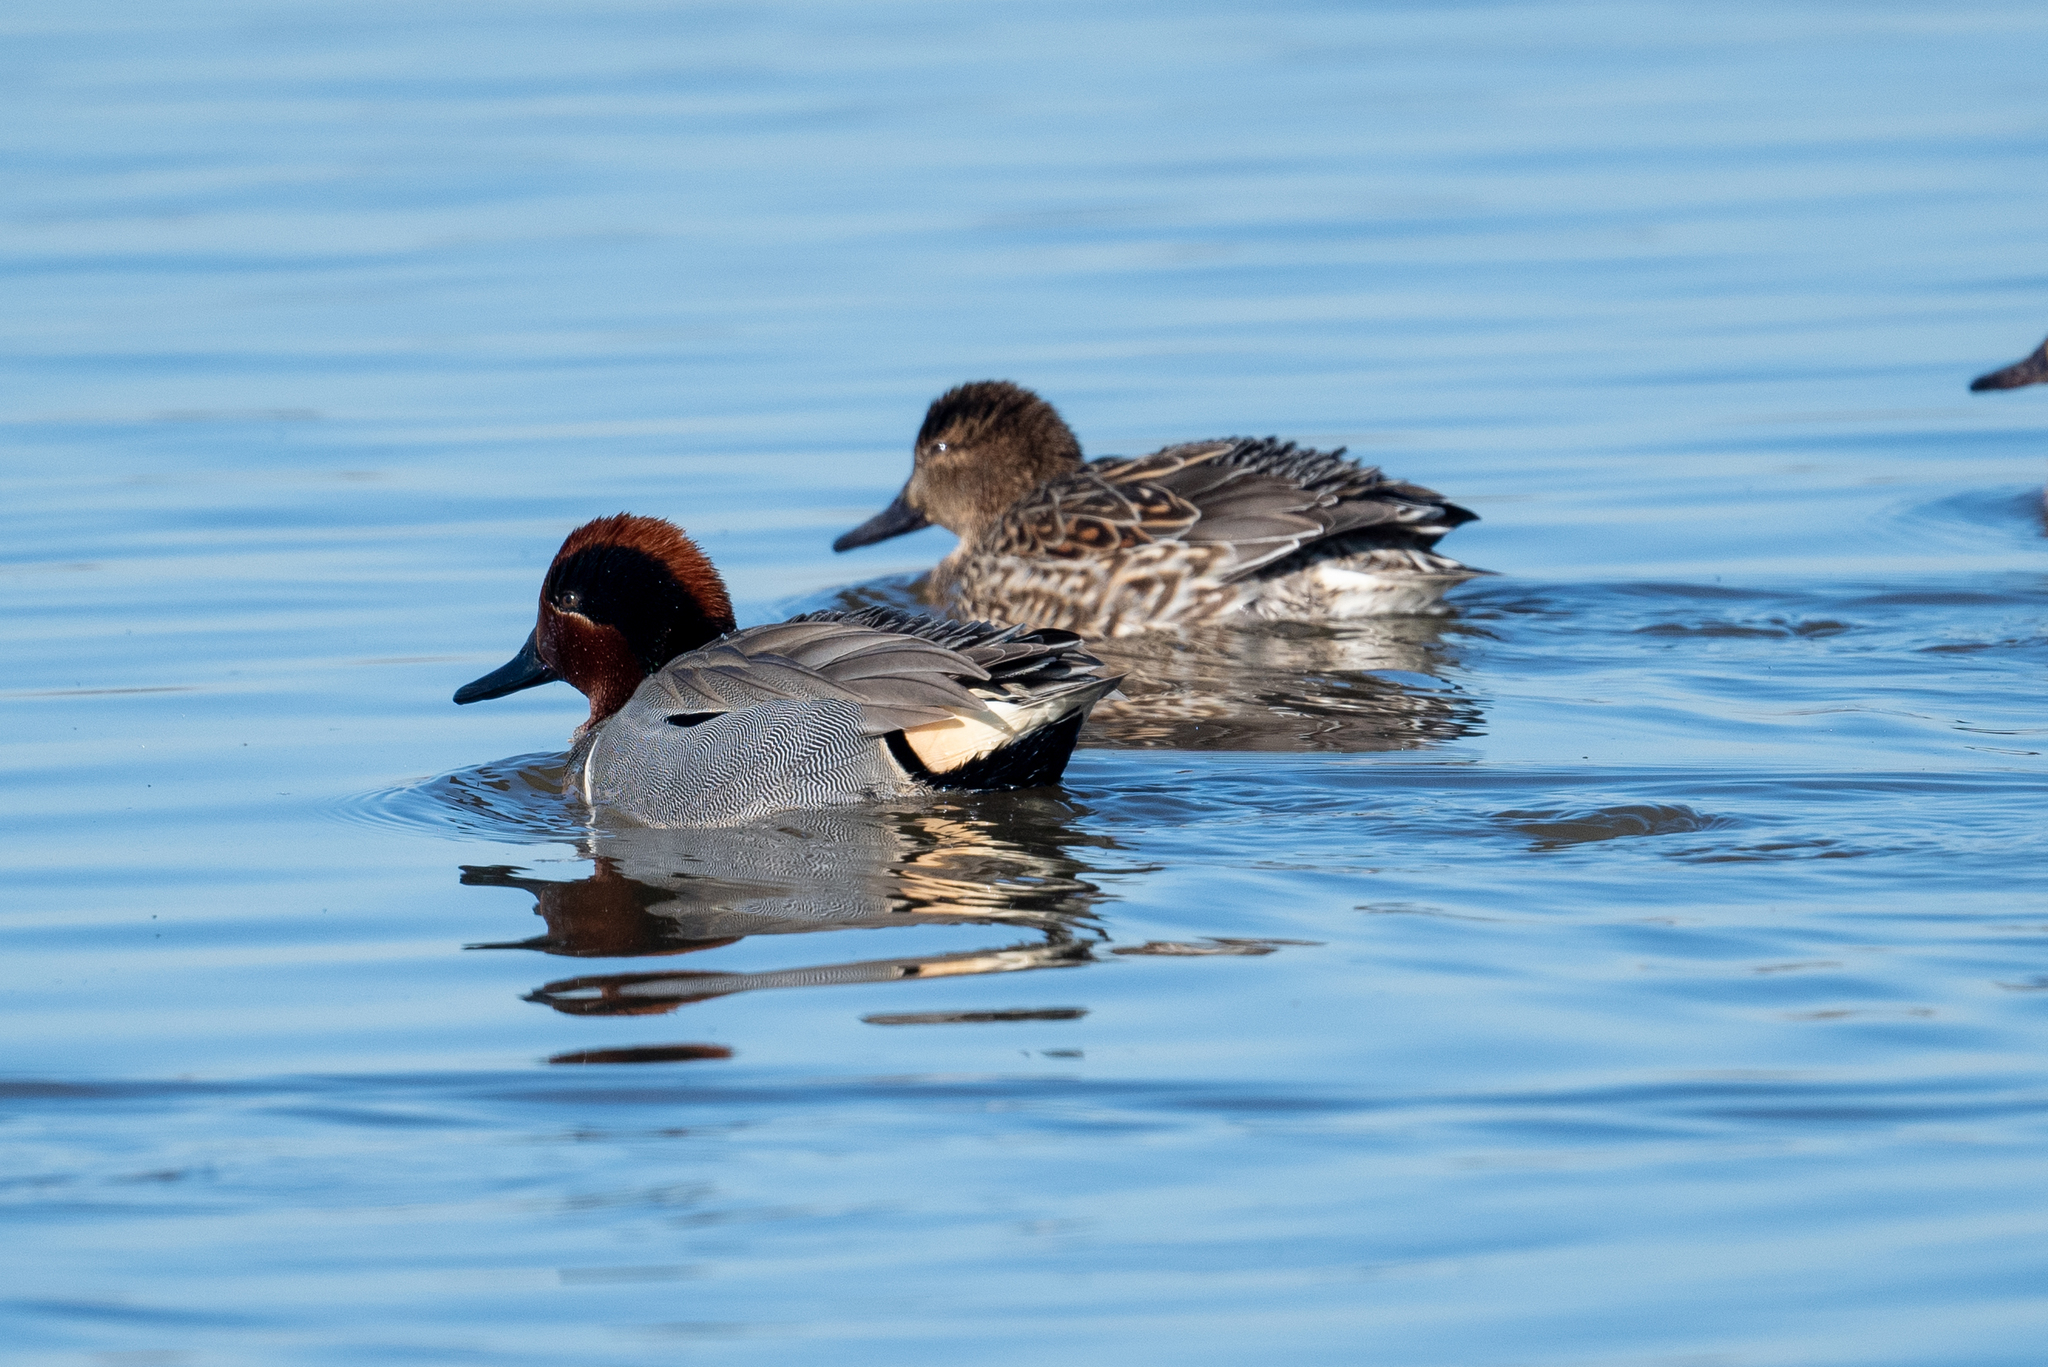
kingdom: Animalia
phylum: Chordata
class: Aves
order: Anseriformes
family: Anatidae
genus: Anas
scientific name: Anas crecca
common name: Eurasian teal
